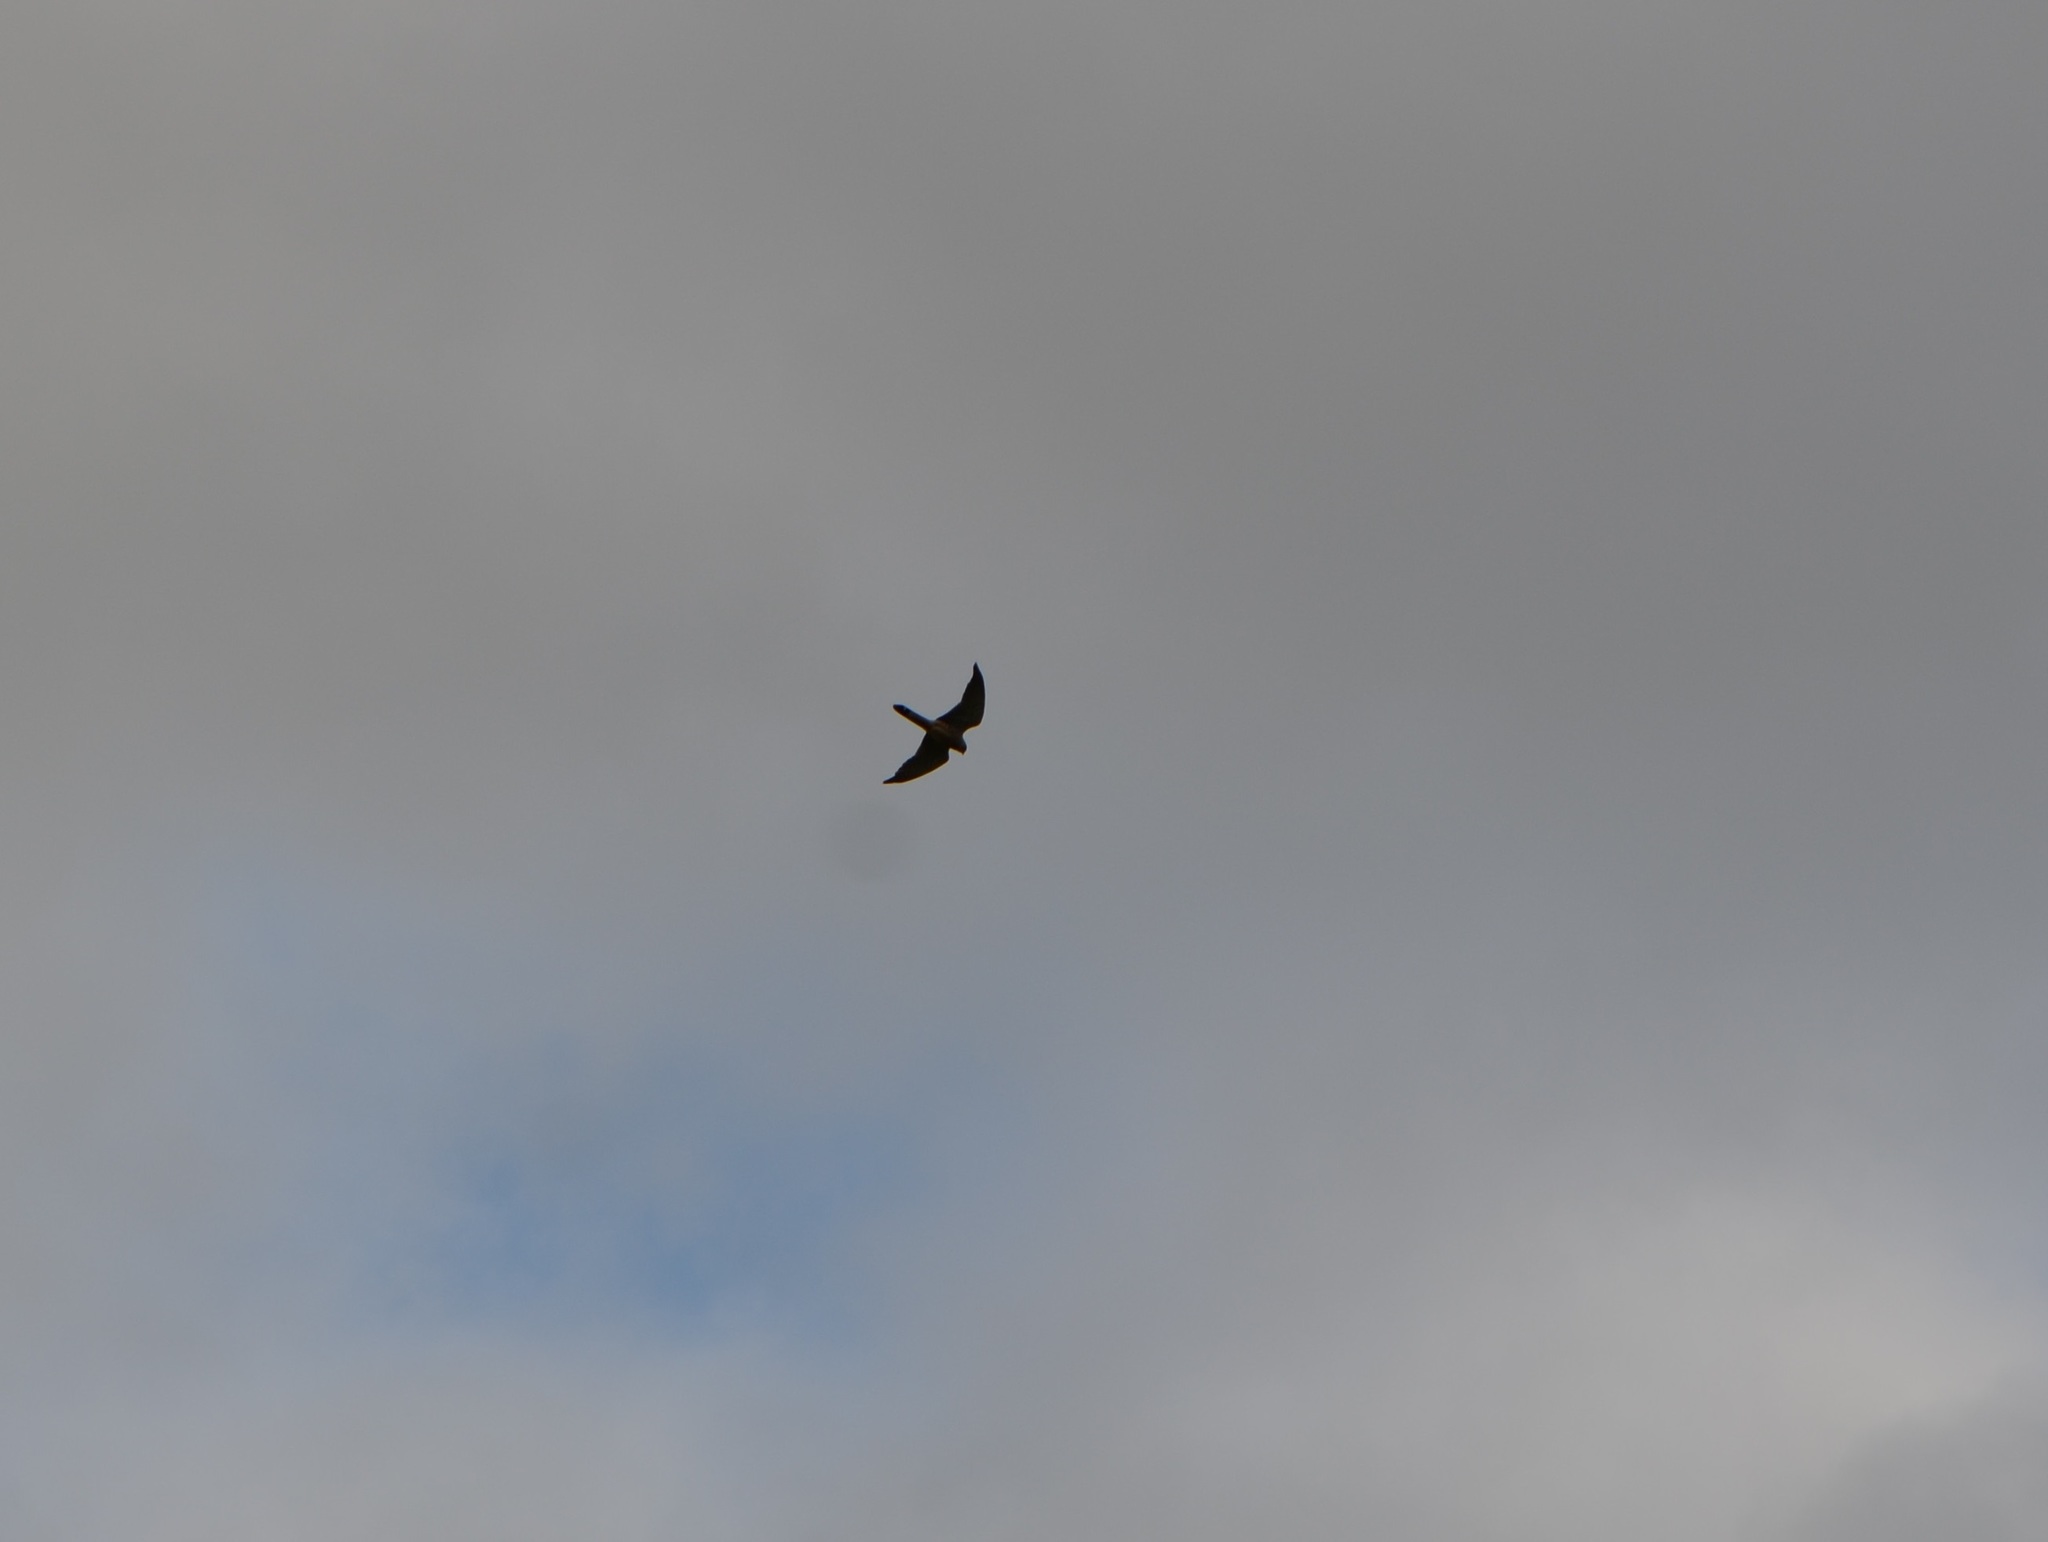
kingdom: Animalia
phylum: Chordata
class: Aves
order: Falconiformes
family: Falconidae
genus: Falco
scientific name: Falco tinnunculus
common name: Common kestrel
